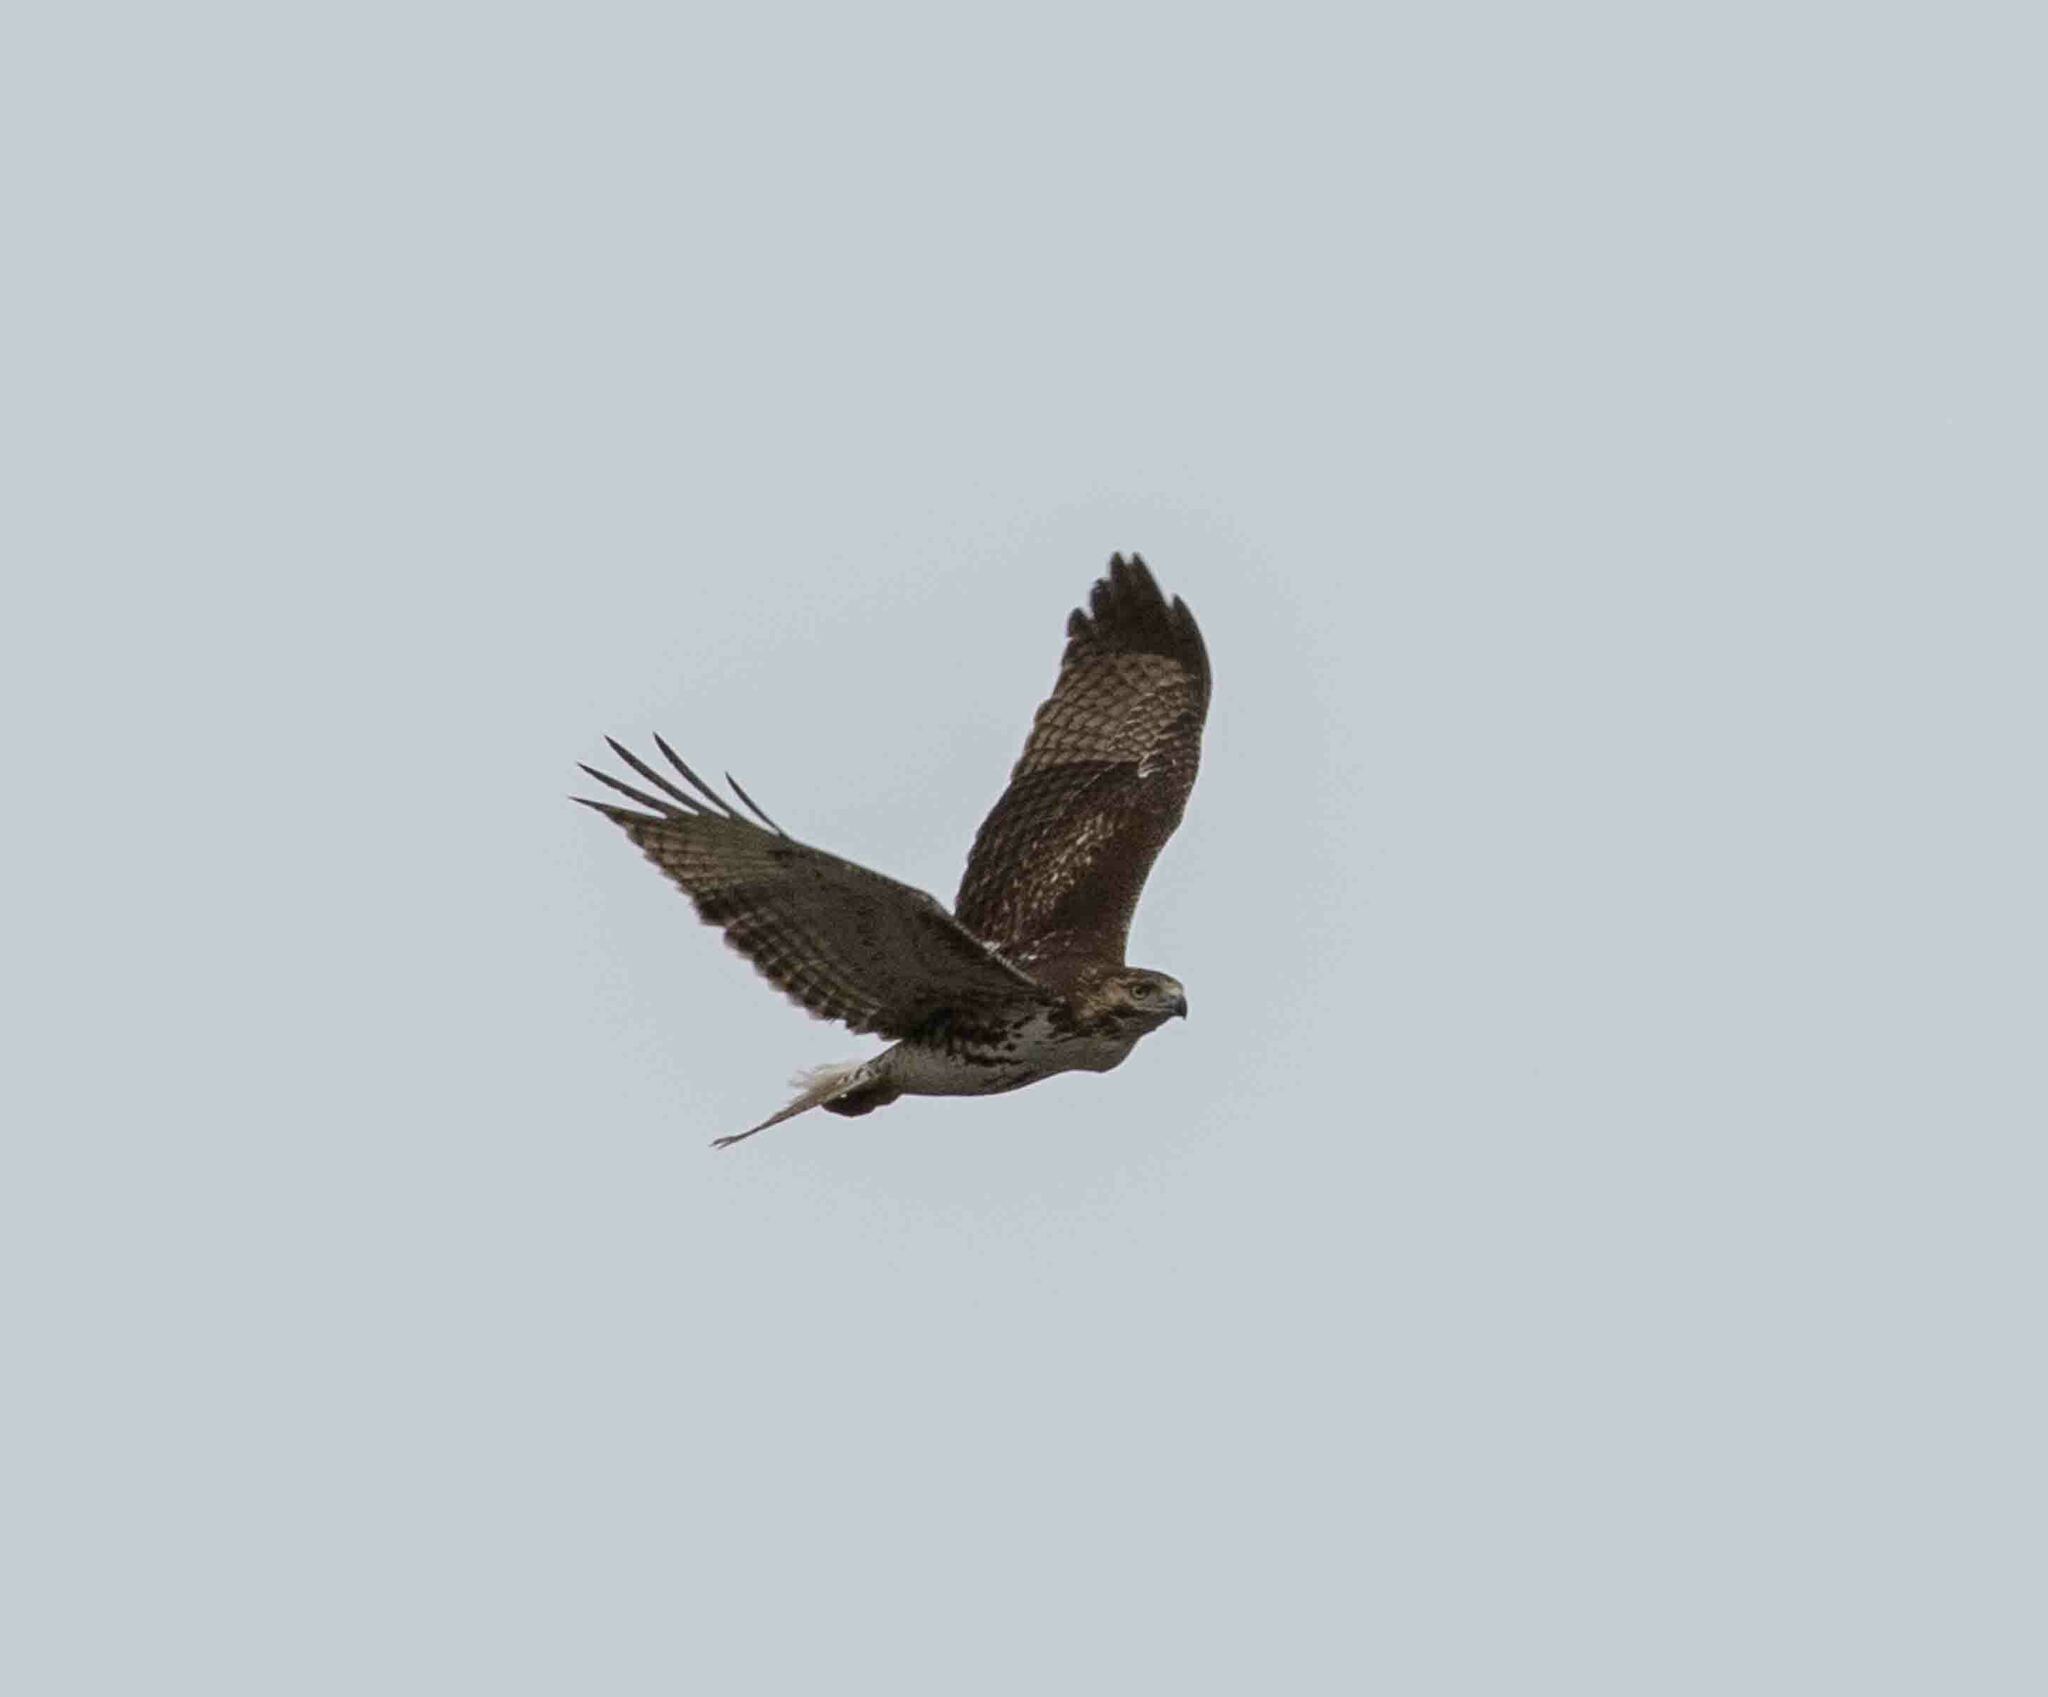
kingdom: Animalia
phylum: Chordata
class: Aves
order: Accipitriformes
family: Accipitridae
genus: Buteo
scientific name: Buteo jamaicensis
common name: Red-tailed hawk
